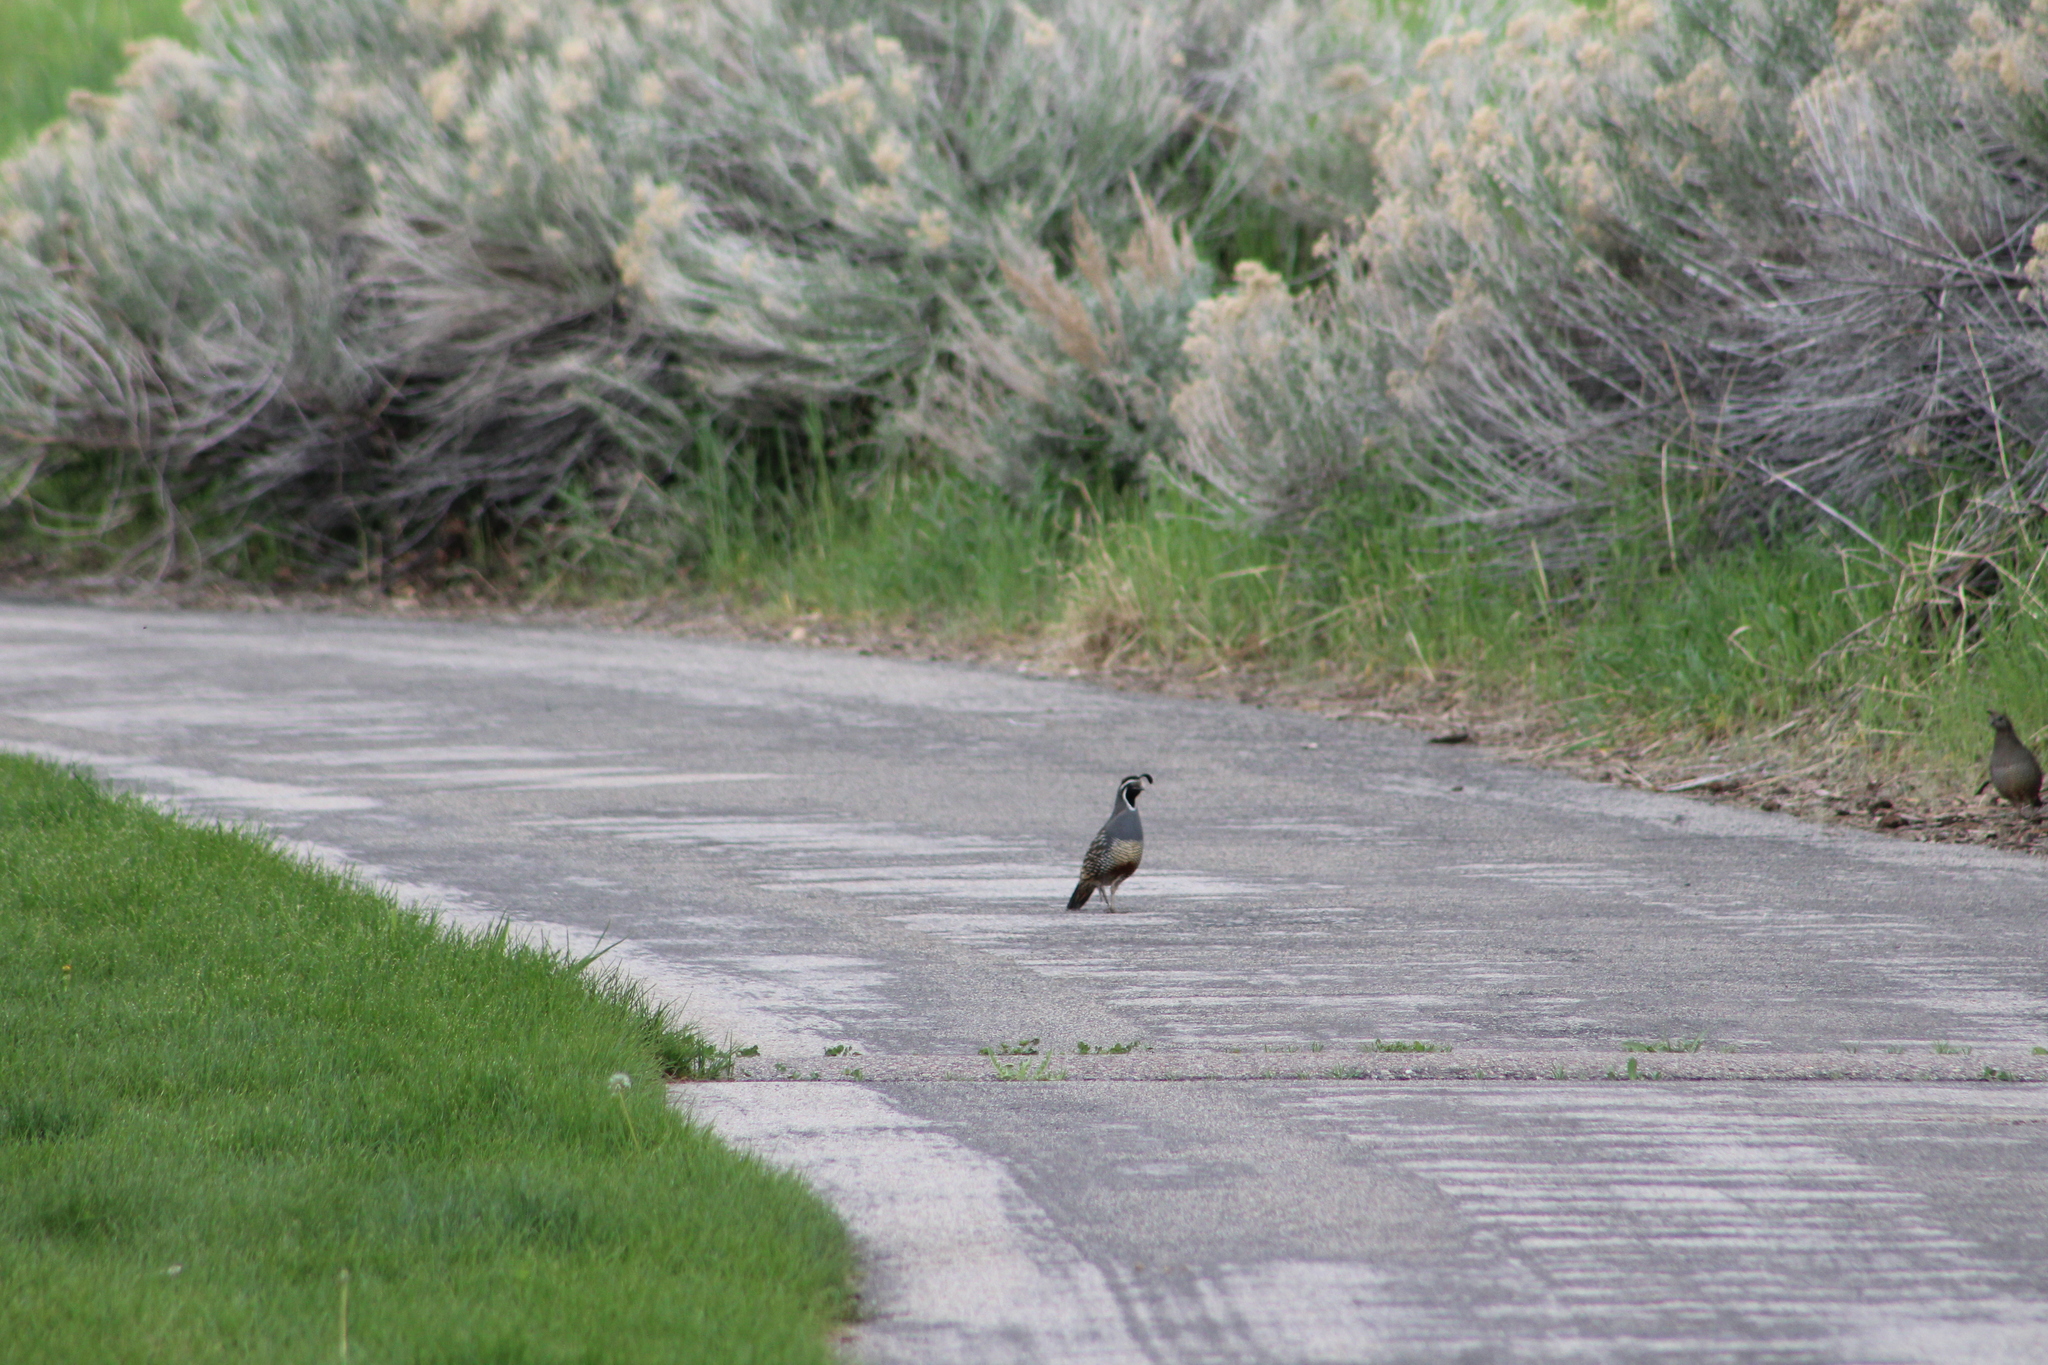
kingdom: Animalia
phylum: Chordata
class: Aves
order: Galliformes
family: Odontophoridae
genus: Callipepla
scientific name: Callipepla californica
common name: California quail
